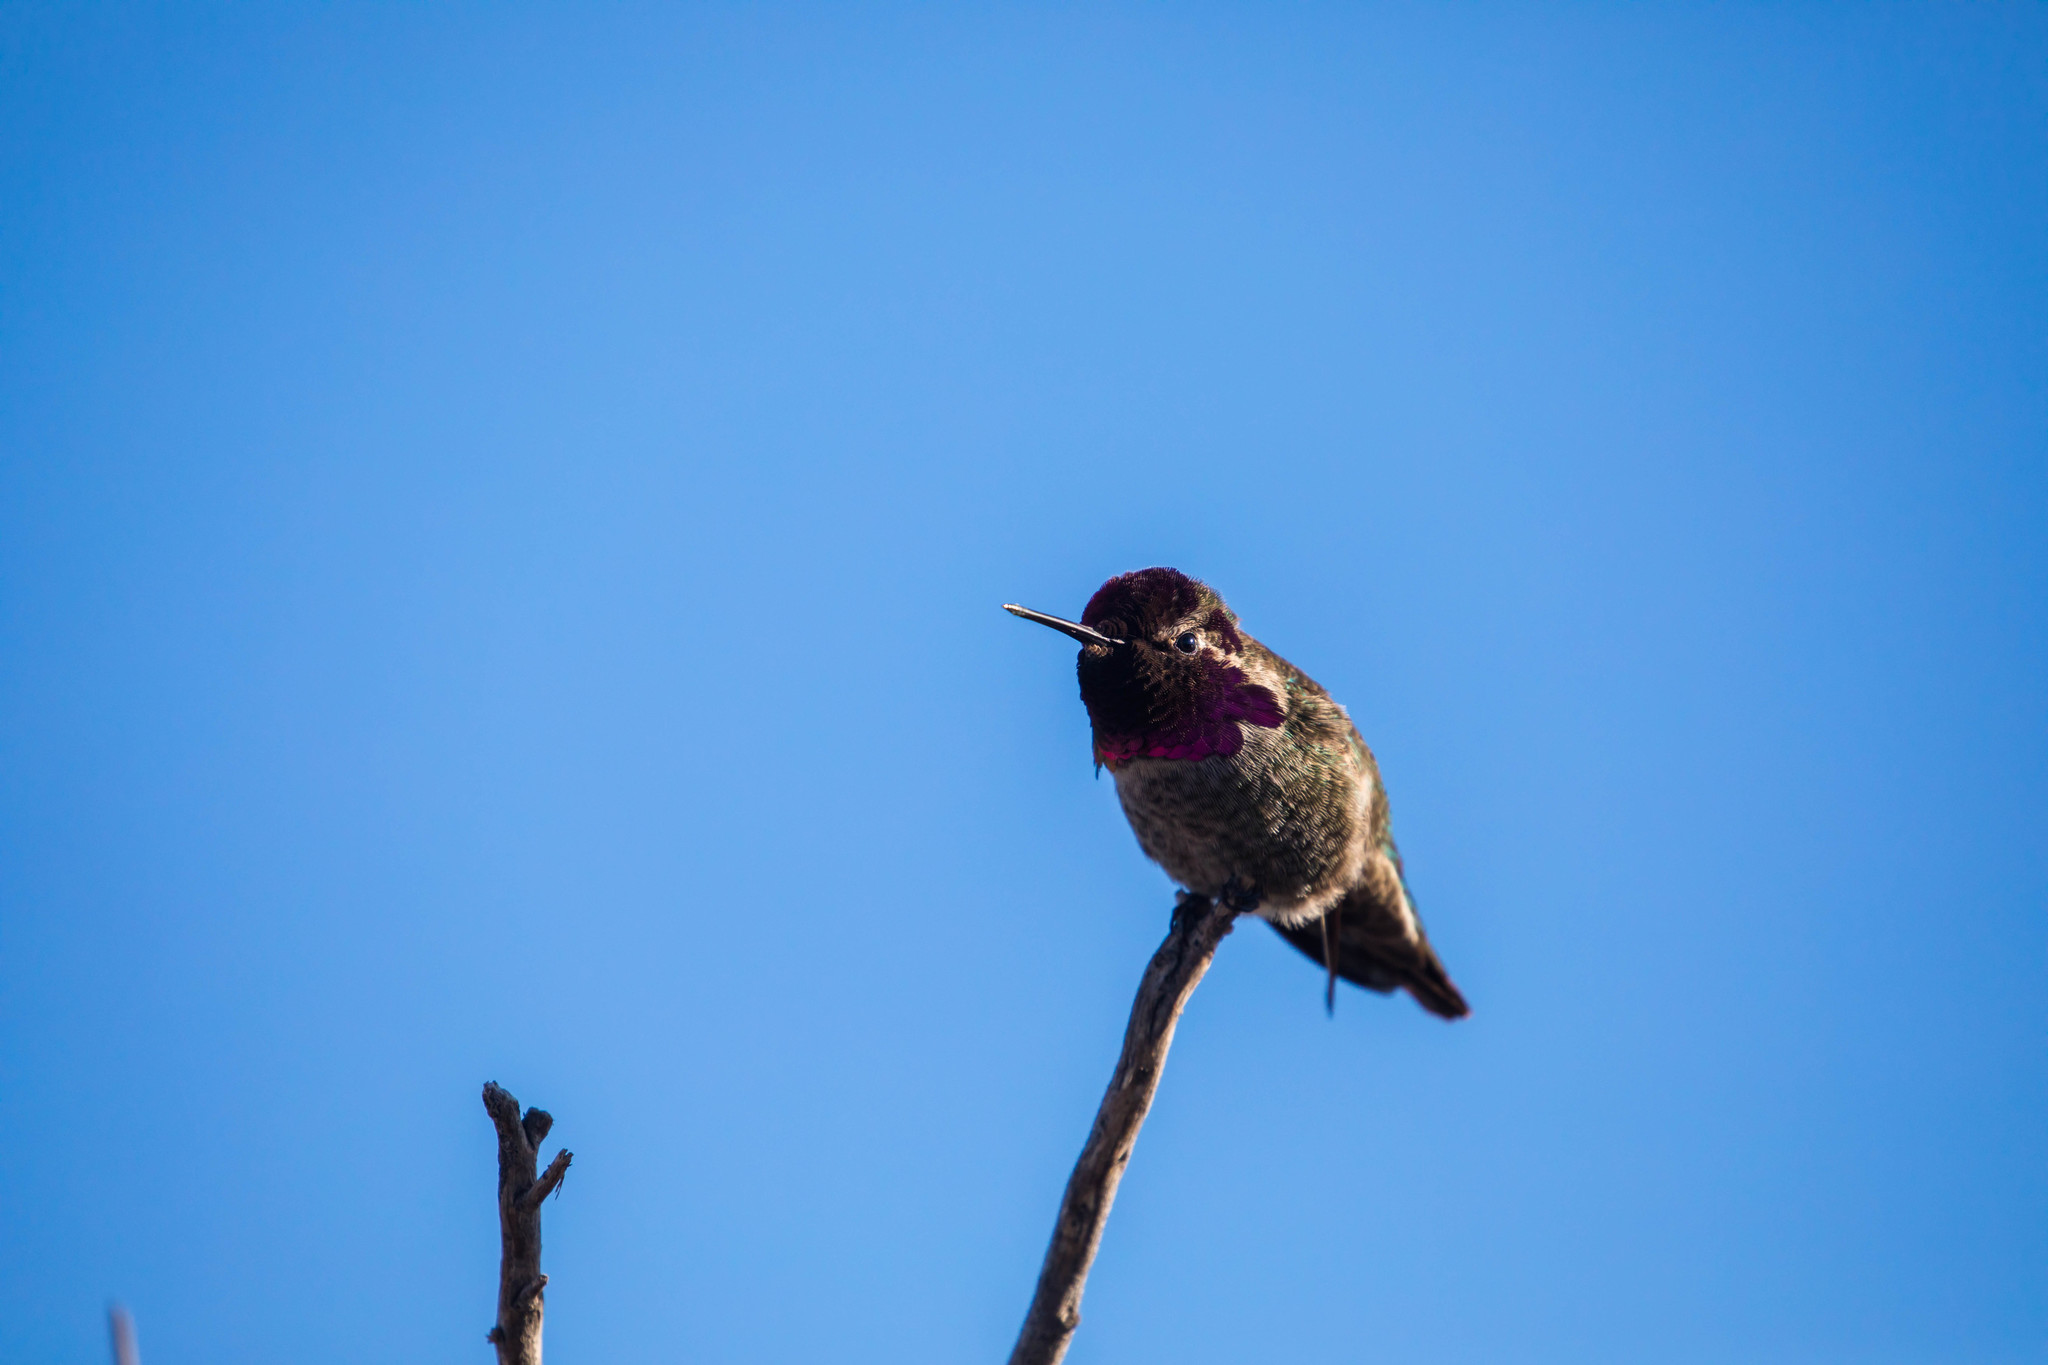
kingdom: Animalia
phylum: Chordata
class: Aves
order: Apodiformes
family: Trochilidae
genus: Calypte
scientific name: Calypte anna
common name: Anna's hummingbird
